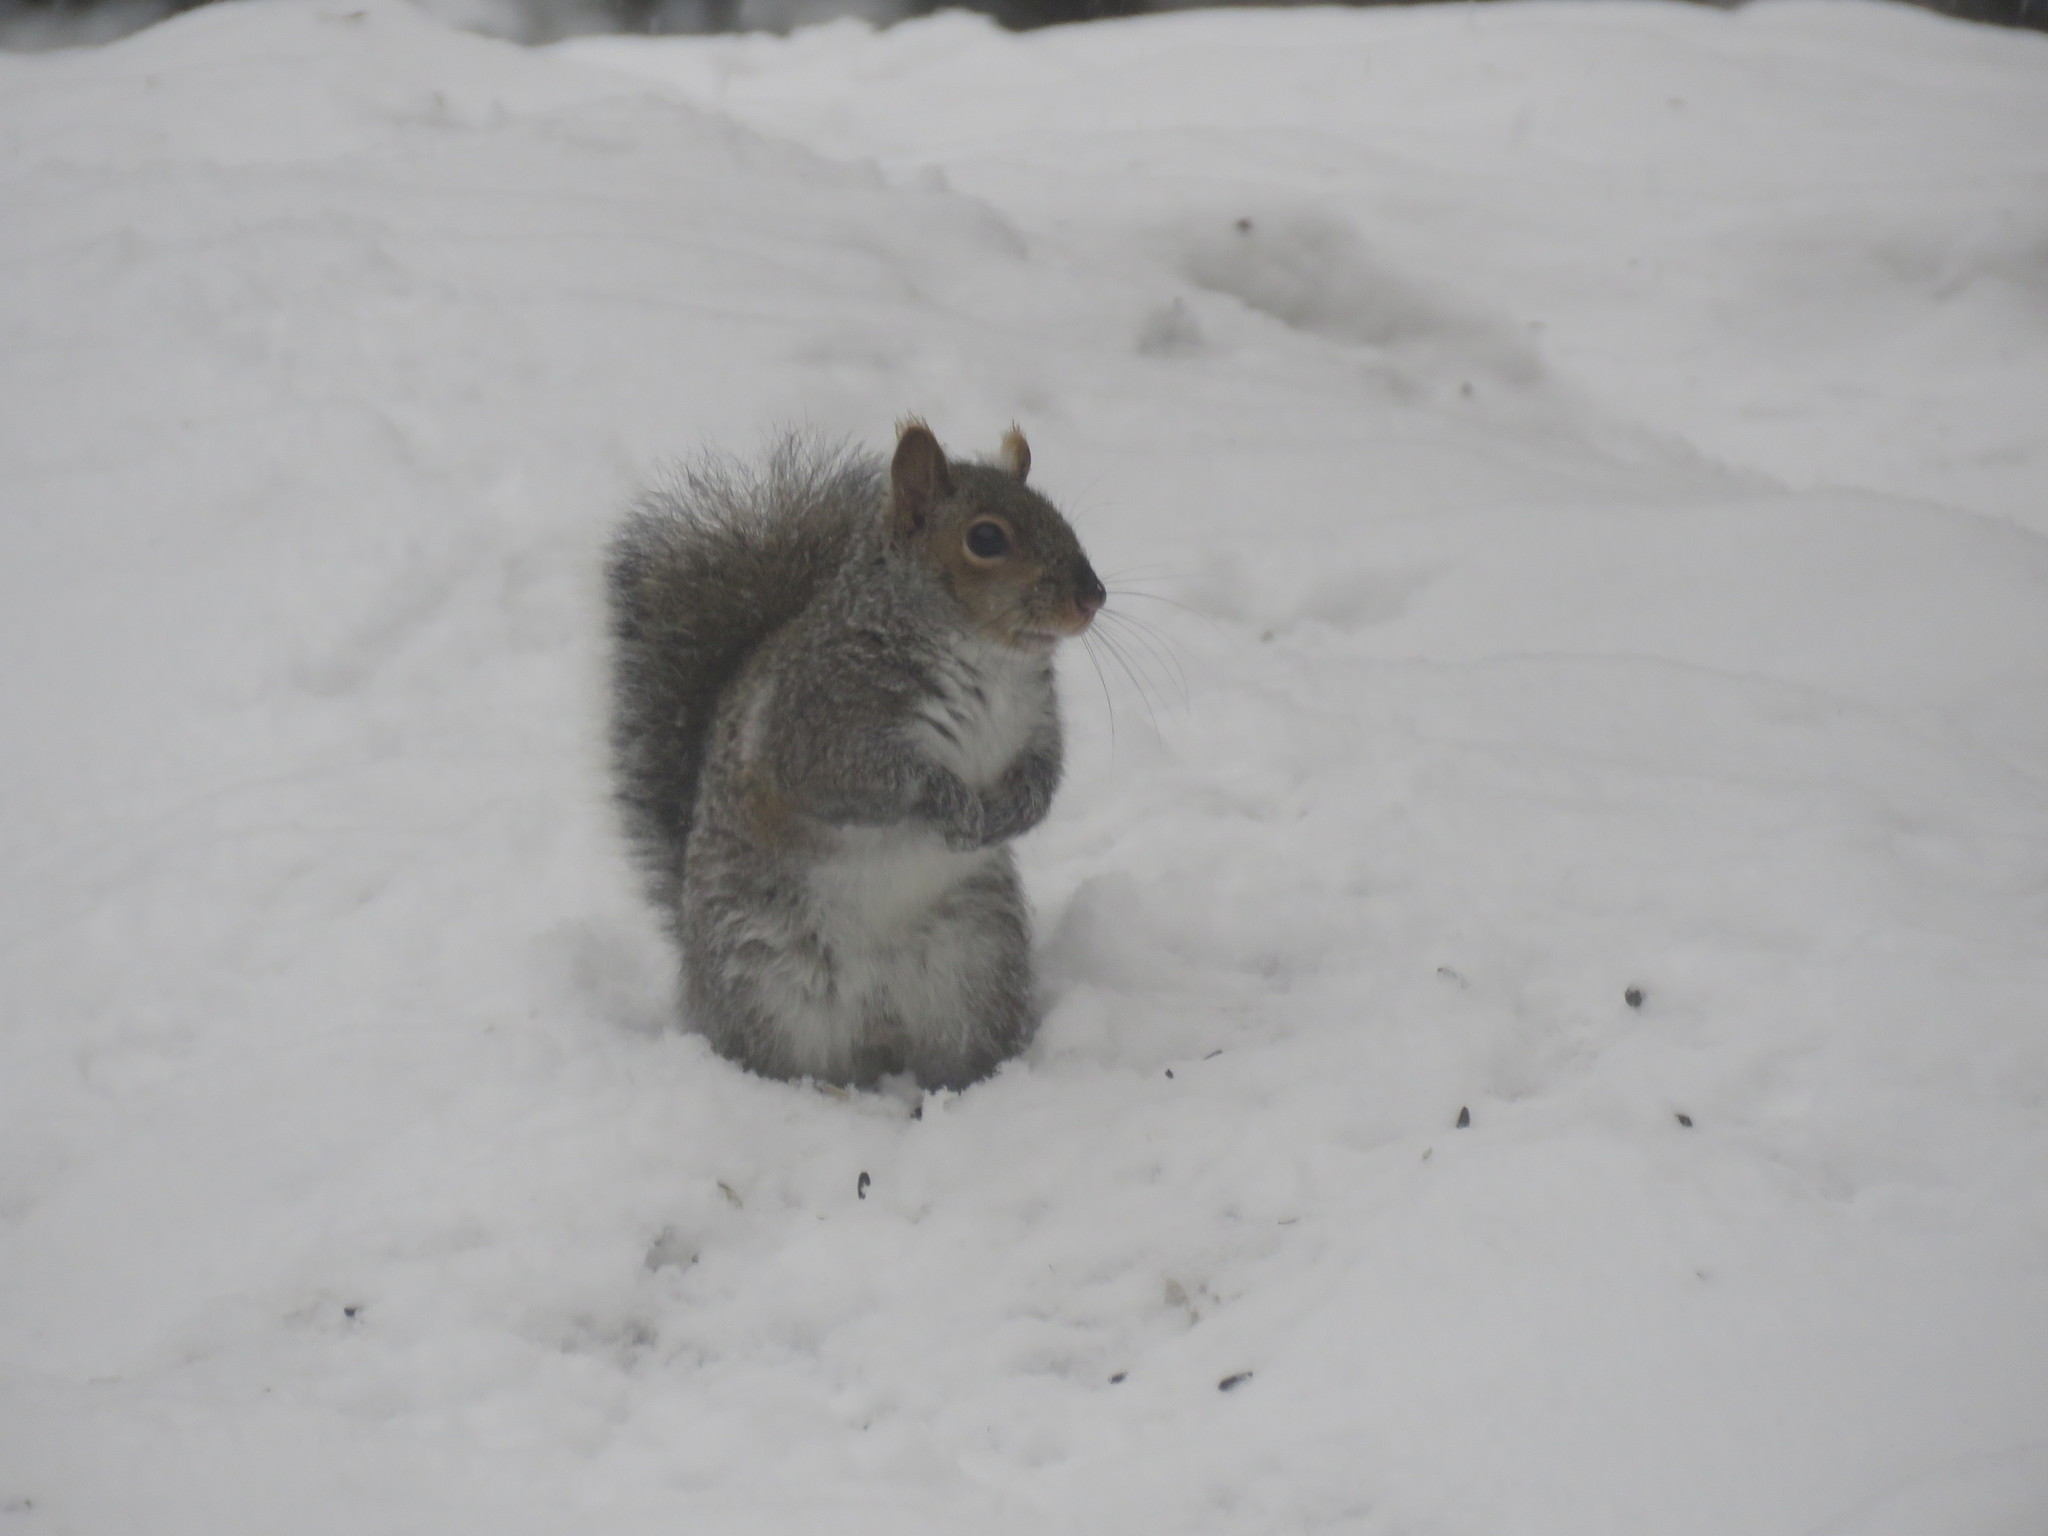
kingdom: Animalia
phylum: Chordata
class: Mammalia
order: Rodentia
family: Sciuridae
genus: Sciurus
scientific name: Sciurus carolinensis
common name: Eastern gray squirrel
